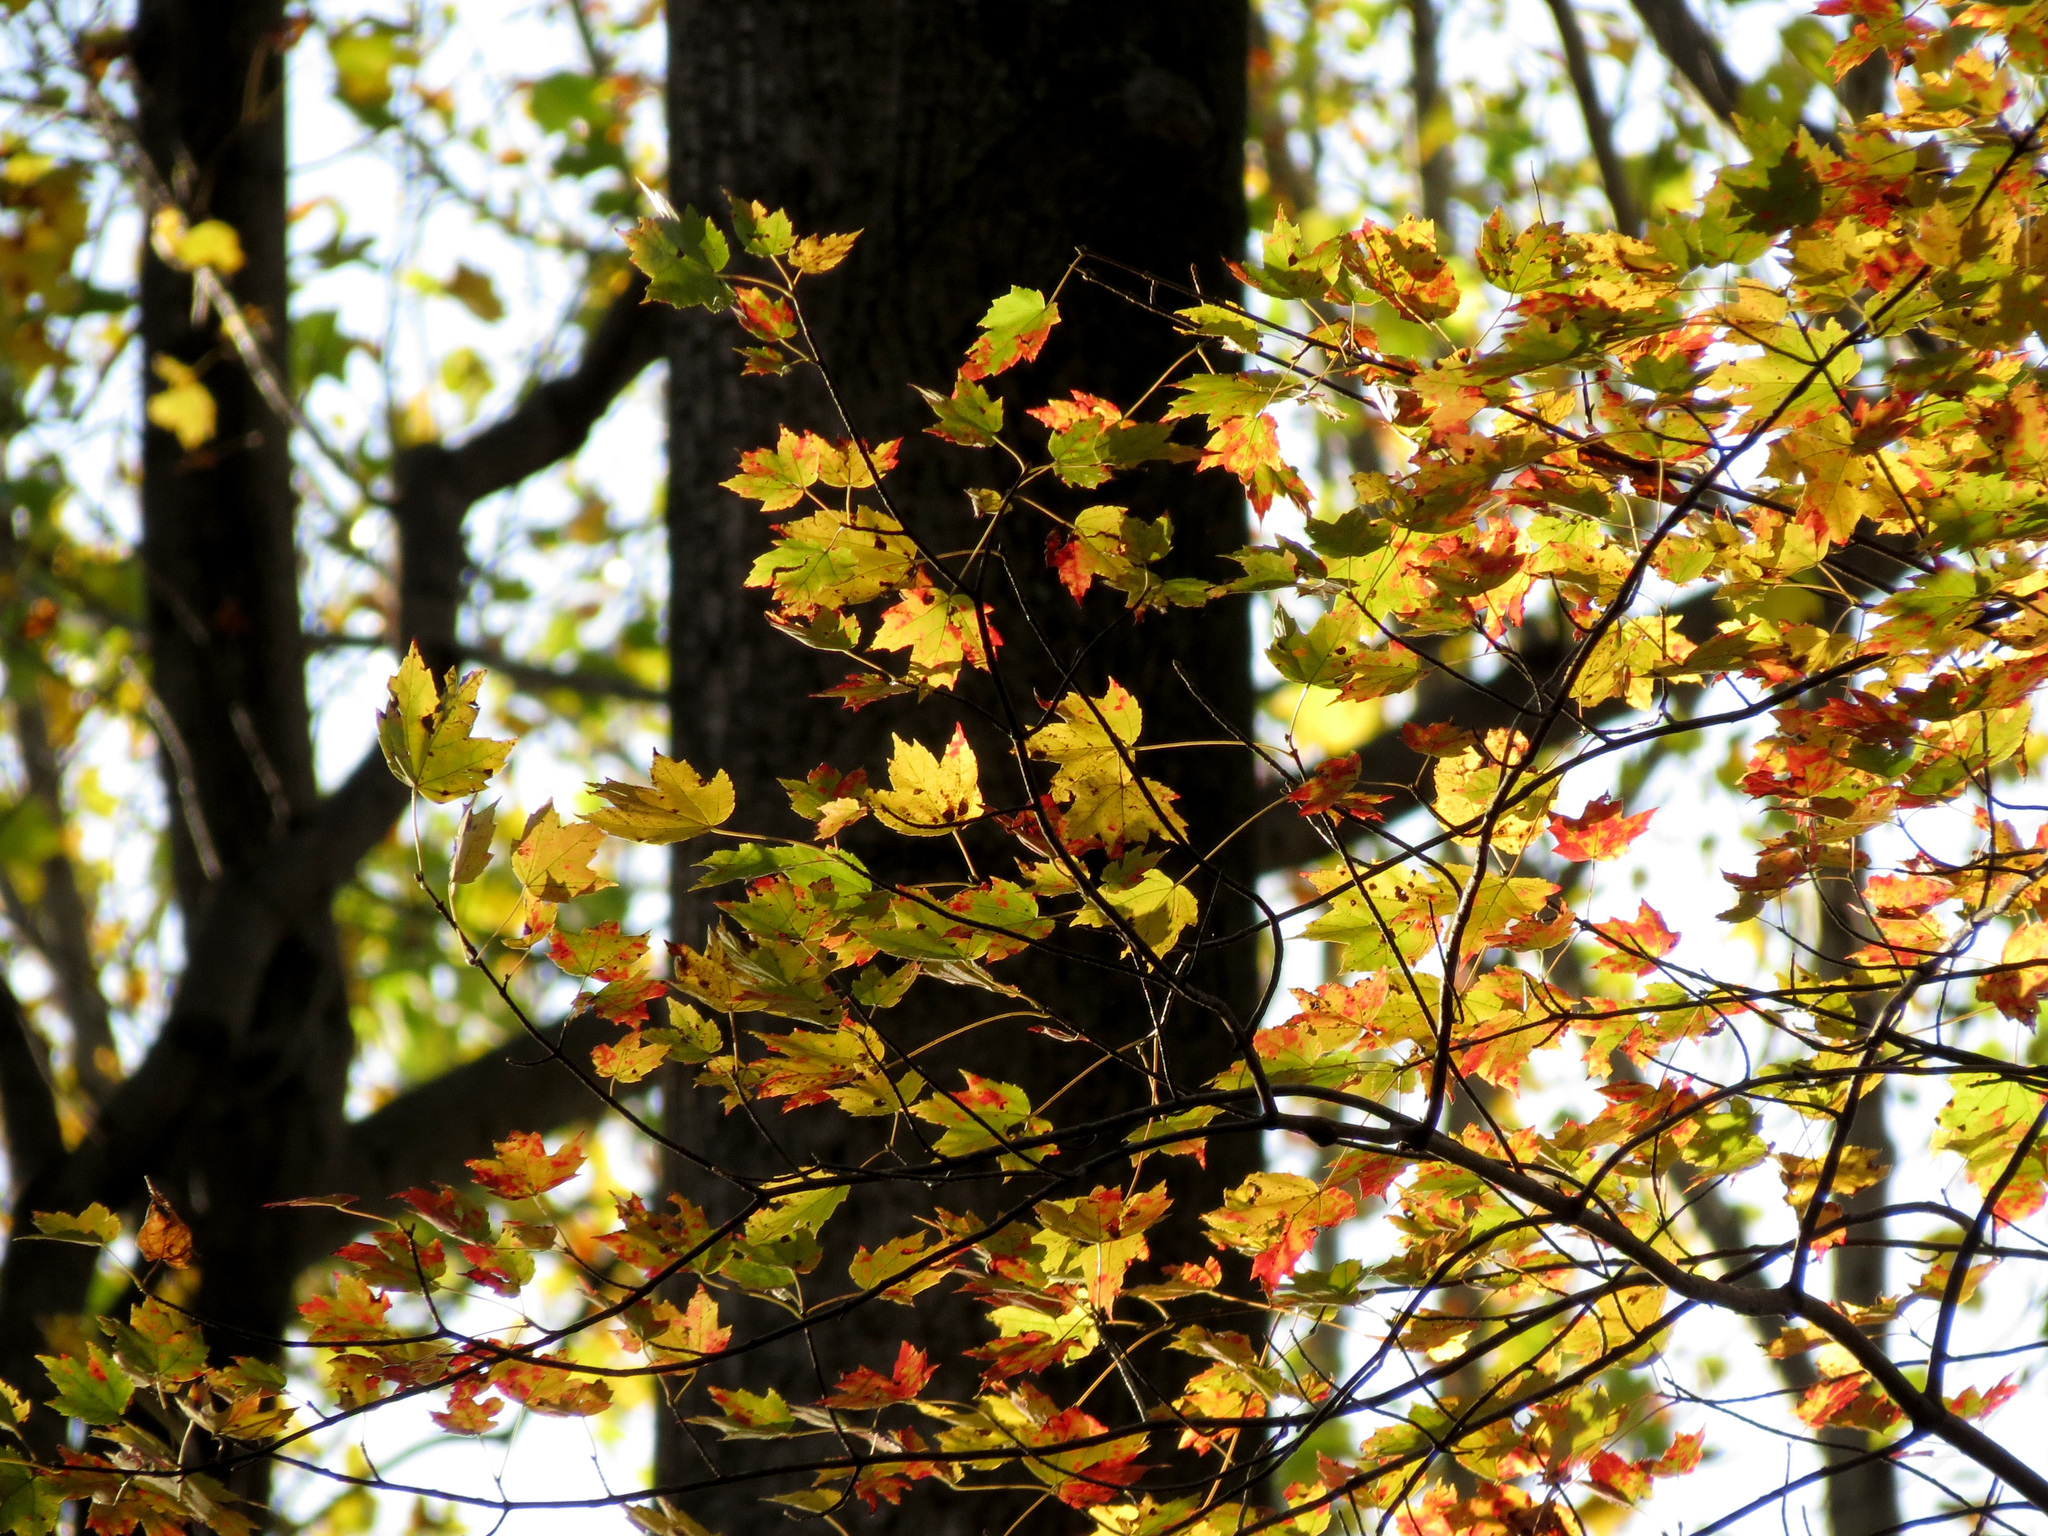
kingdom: Plantae
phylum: Tracheophyta
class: Magnoliopsida
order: Sapindales
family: Sapindaceae
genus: Acer
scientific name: Acer rubrum
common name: Red maple
